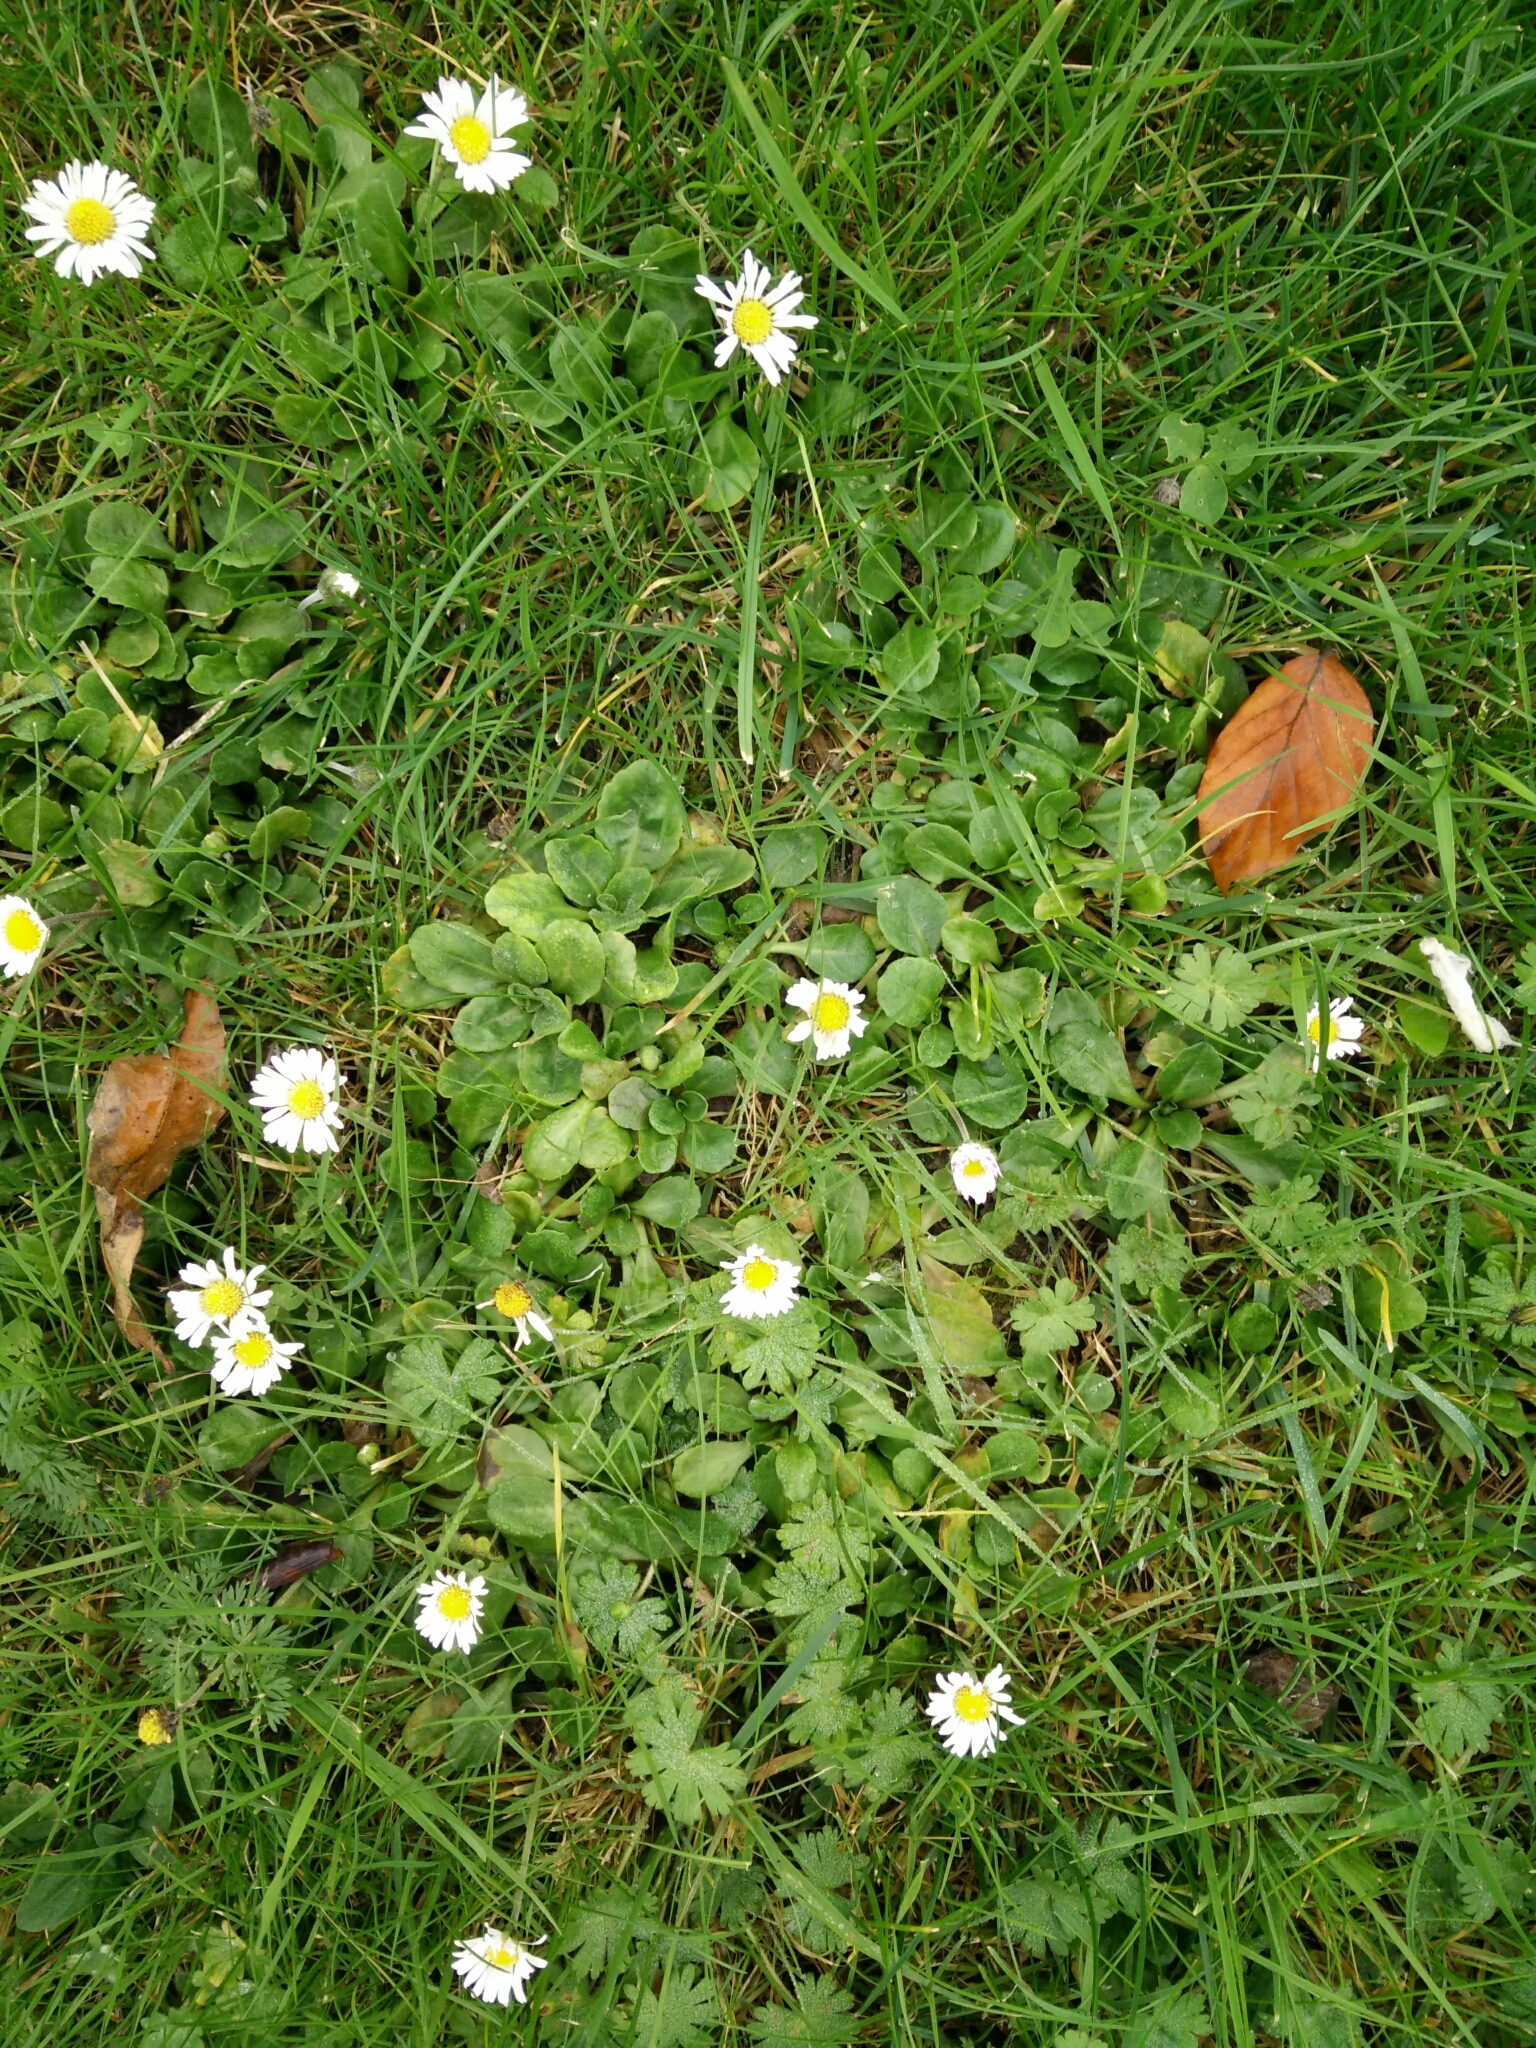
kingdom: Plantae
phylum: Tracheophyta
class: Magnoliopsida
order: Asterales
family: Asteraceae
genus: Bellis
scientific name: Bellis perennis
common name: Lawndaisy
